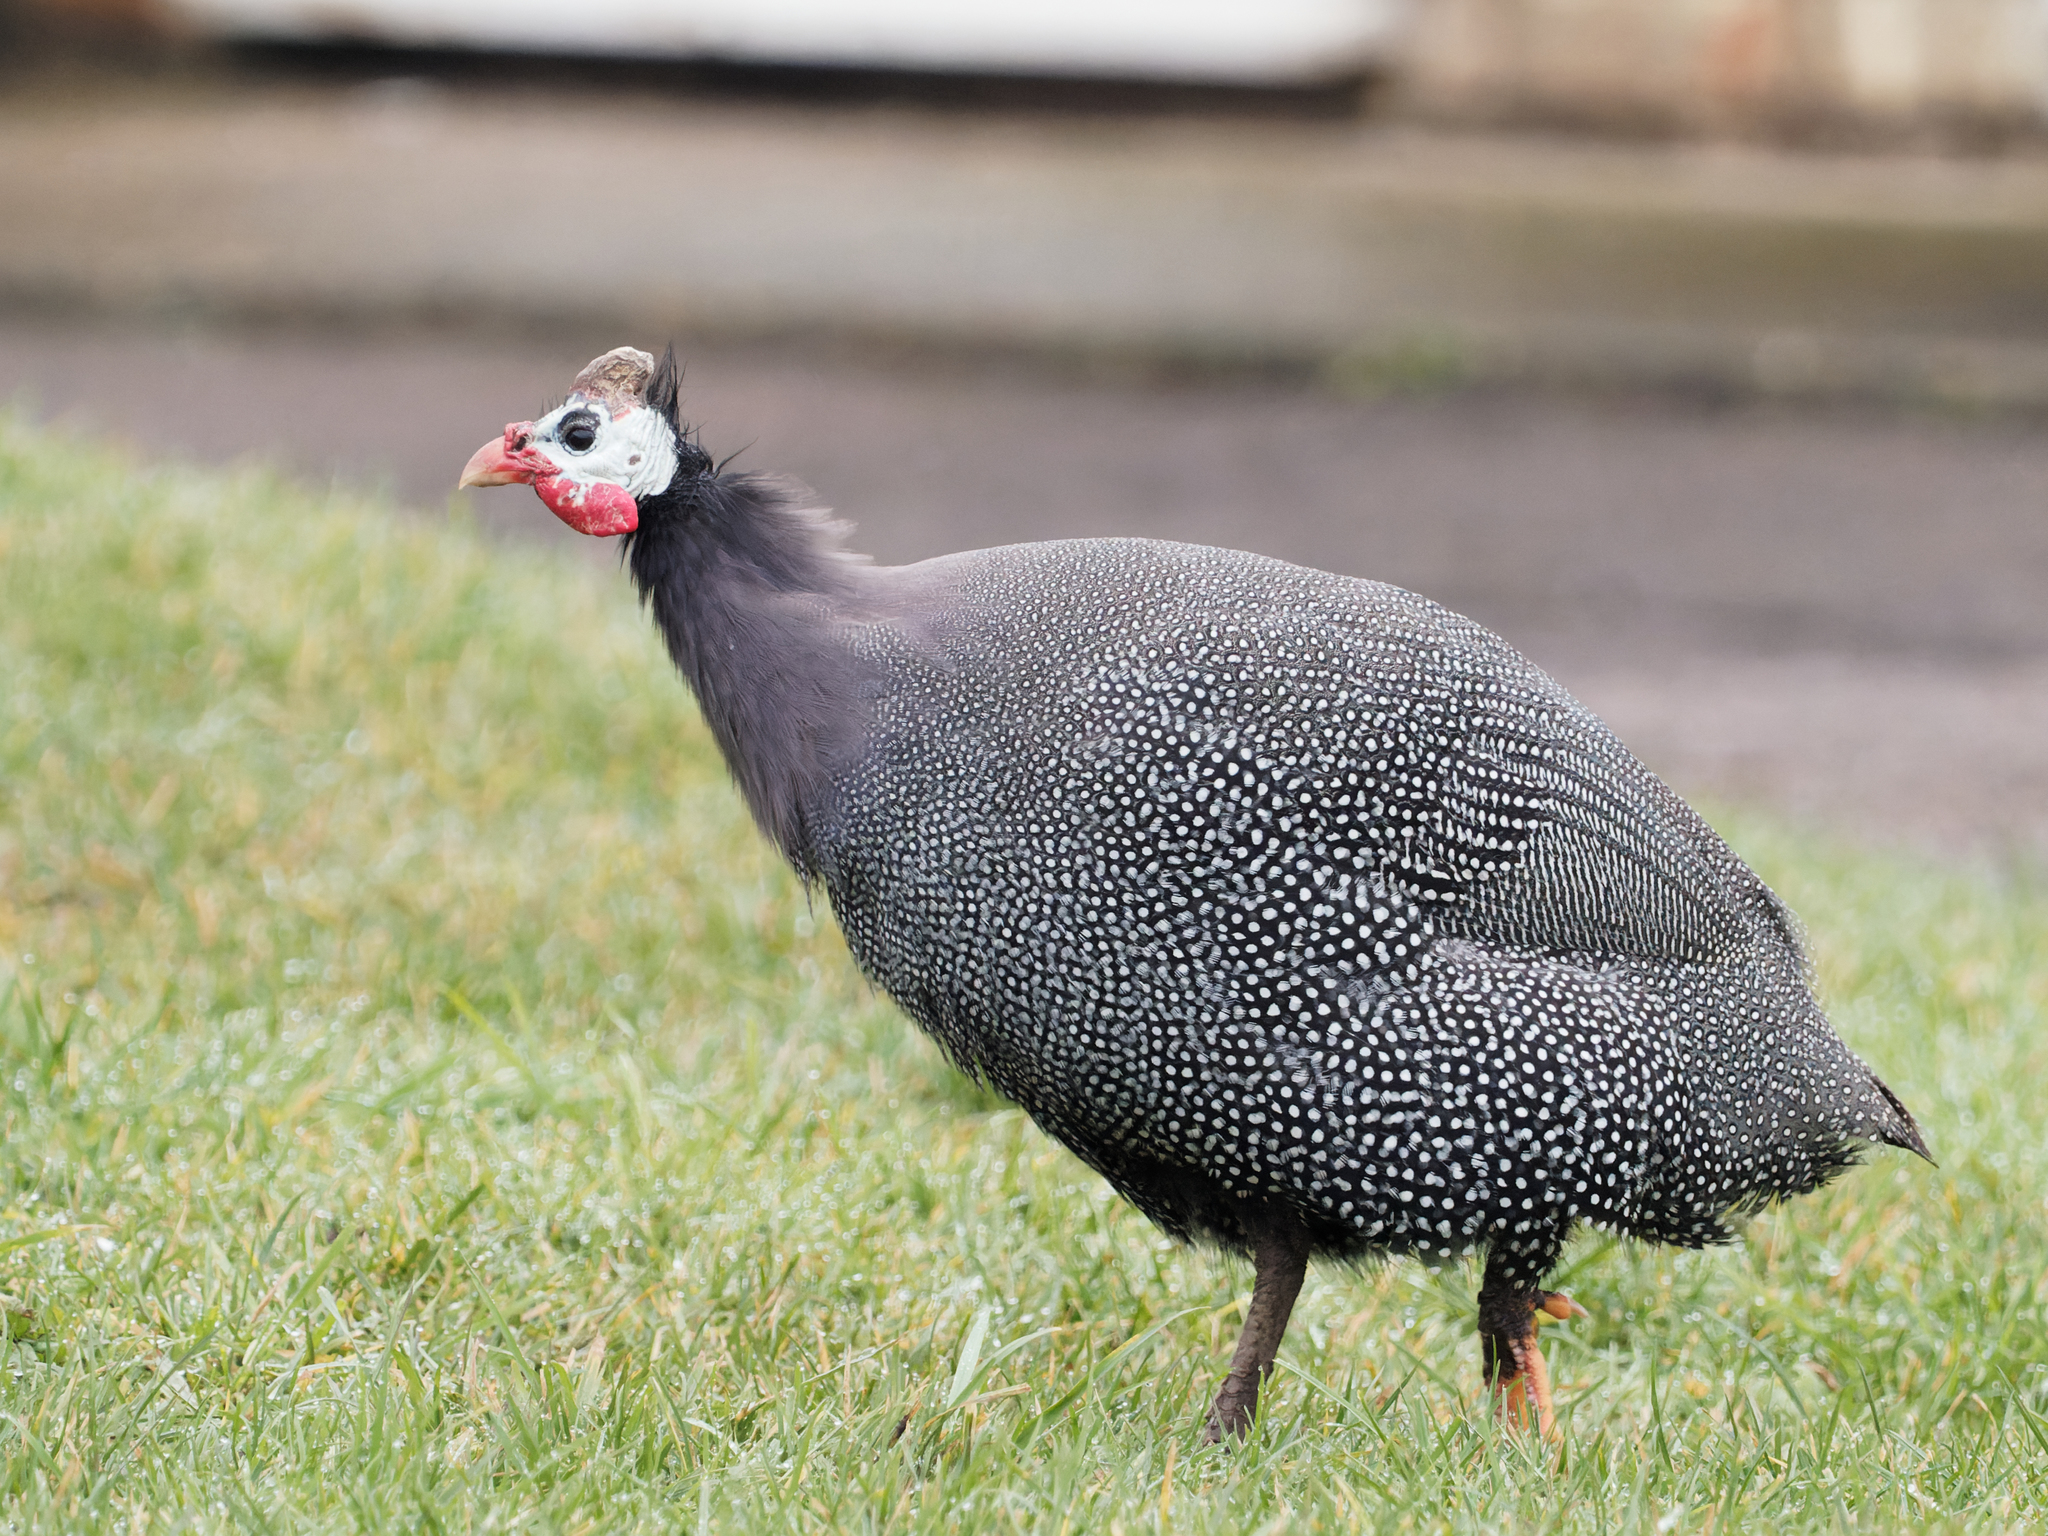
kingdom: Animalia
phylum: Chordata
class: Aves
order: Galliformes
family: Numididae
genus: Numida
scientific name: Numida meleagris
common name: Helmeted guineafowl
